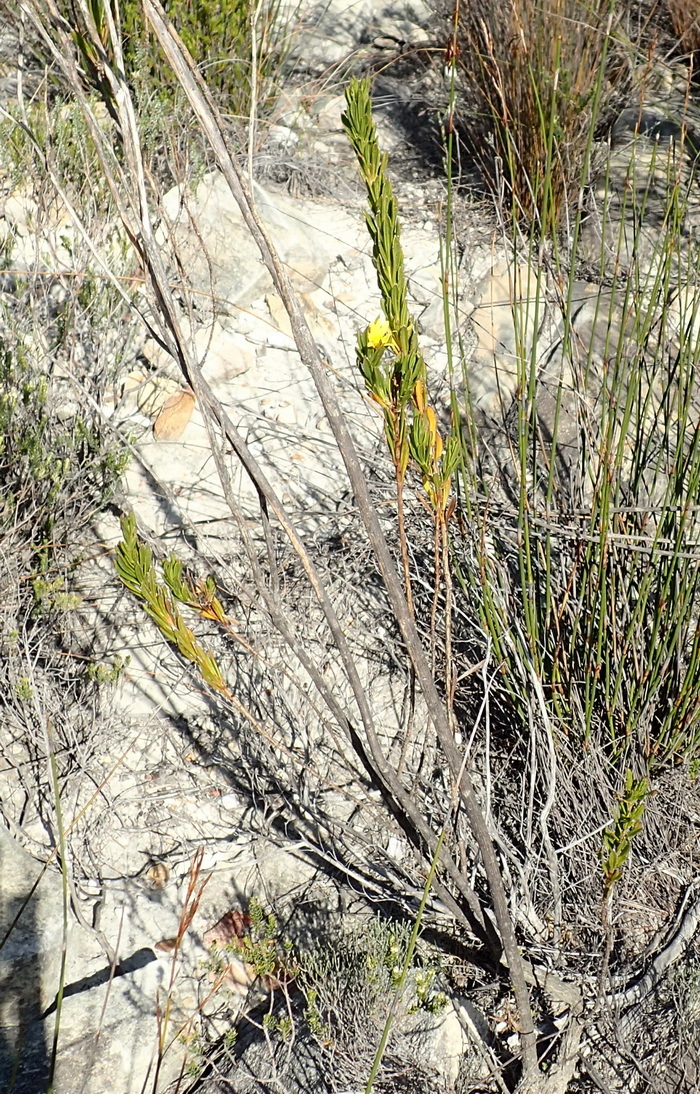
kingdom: Plantae
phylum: Tracheophyta
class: Magnoliopsida
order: Asterales
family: Asteraceae
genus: Cullumia
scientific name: Cullumia aculeata
